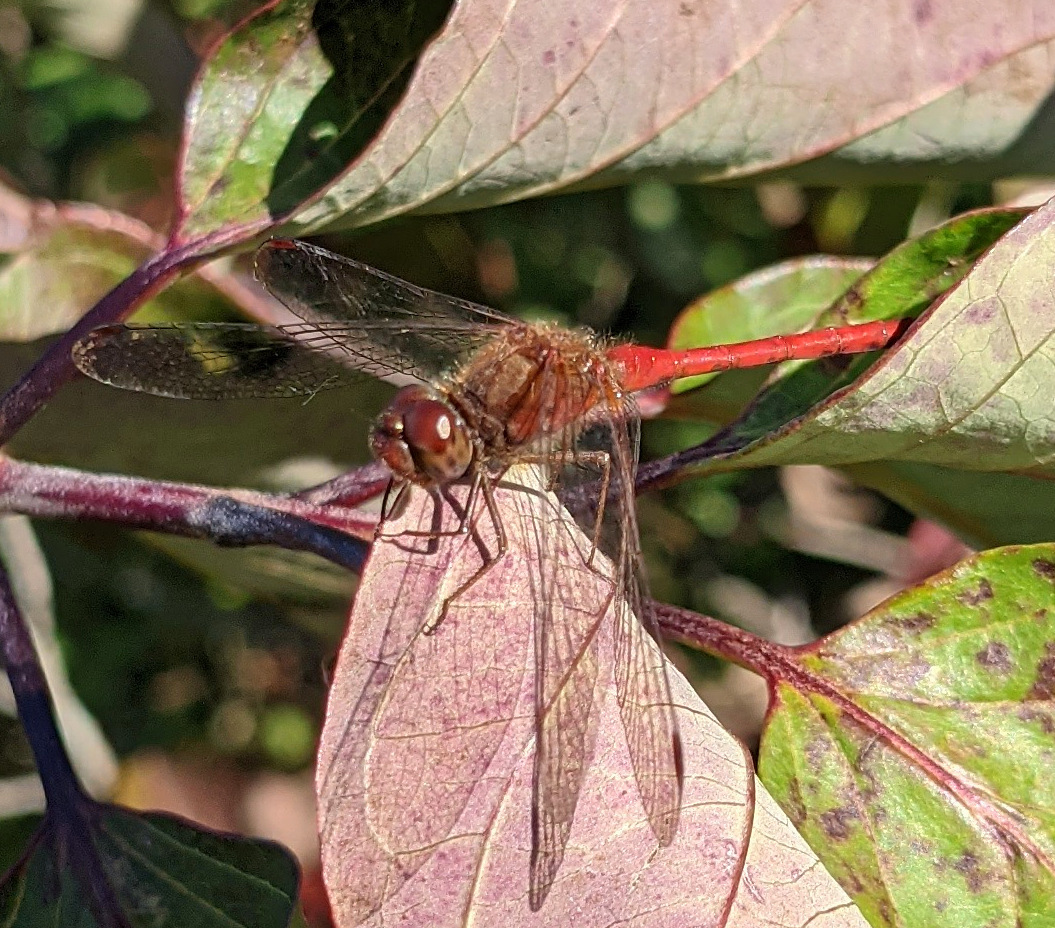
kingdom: Animalia
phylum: Arthropoda
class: Insecta
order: Odonata
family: Libellulidae
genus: Sympetrum
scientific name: Sympetrum vicinum
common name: Autumn meadowhawk
